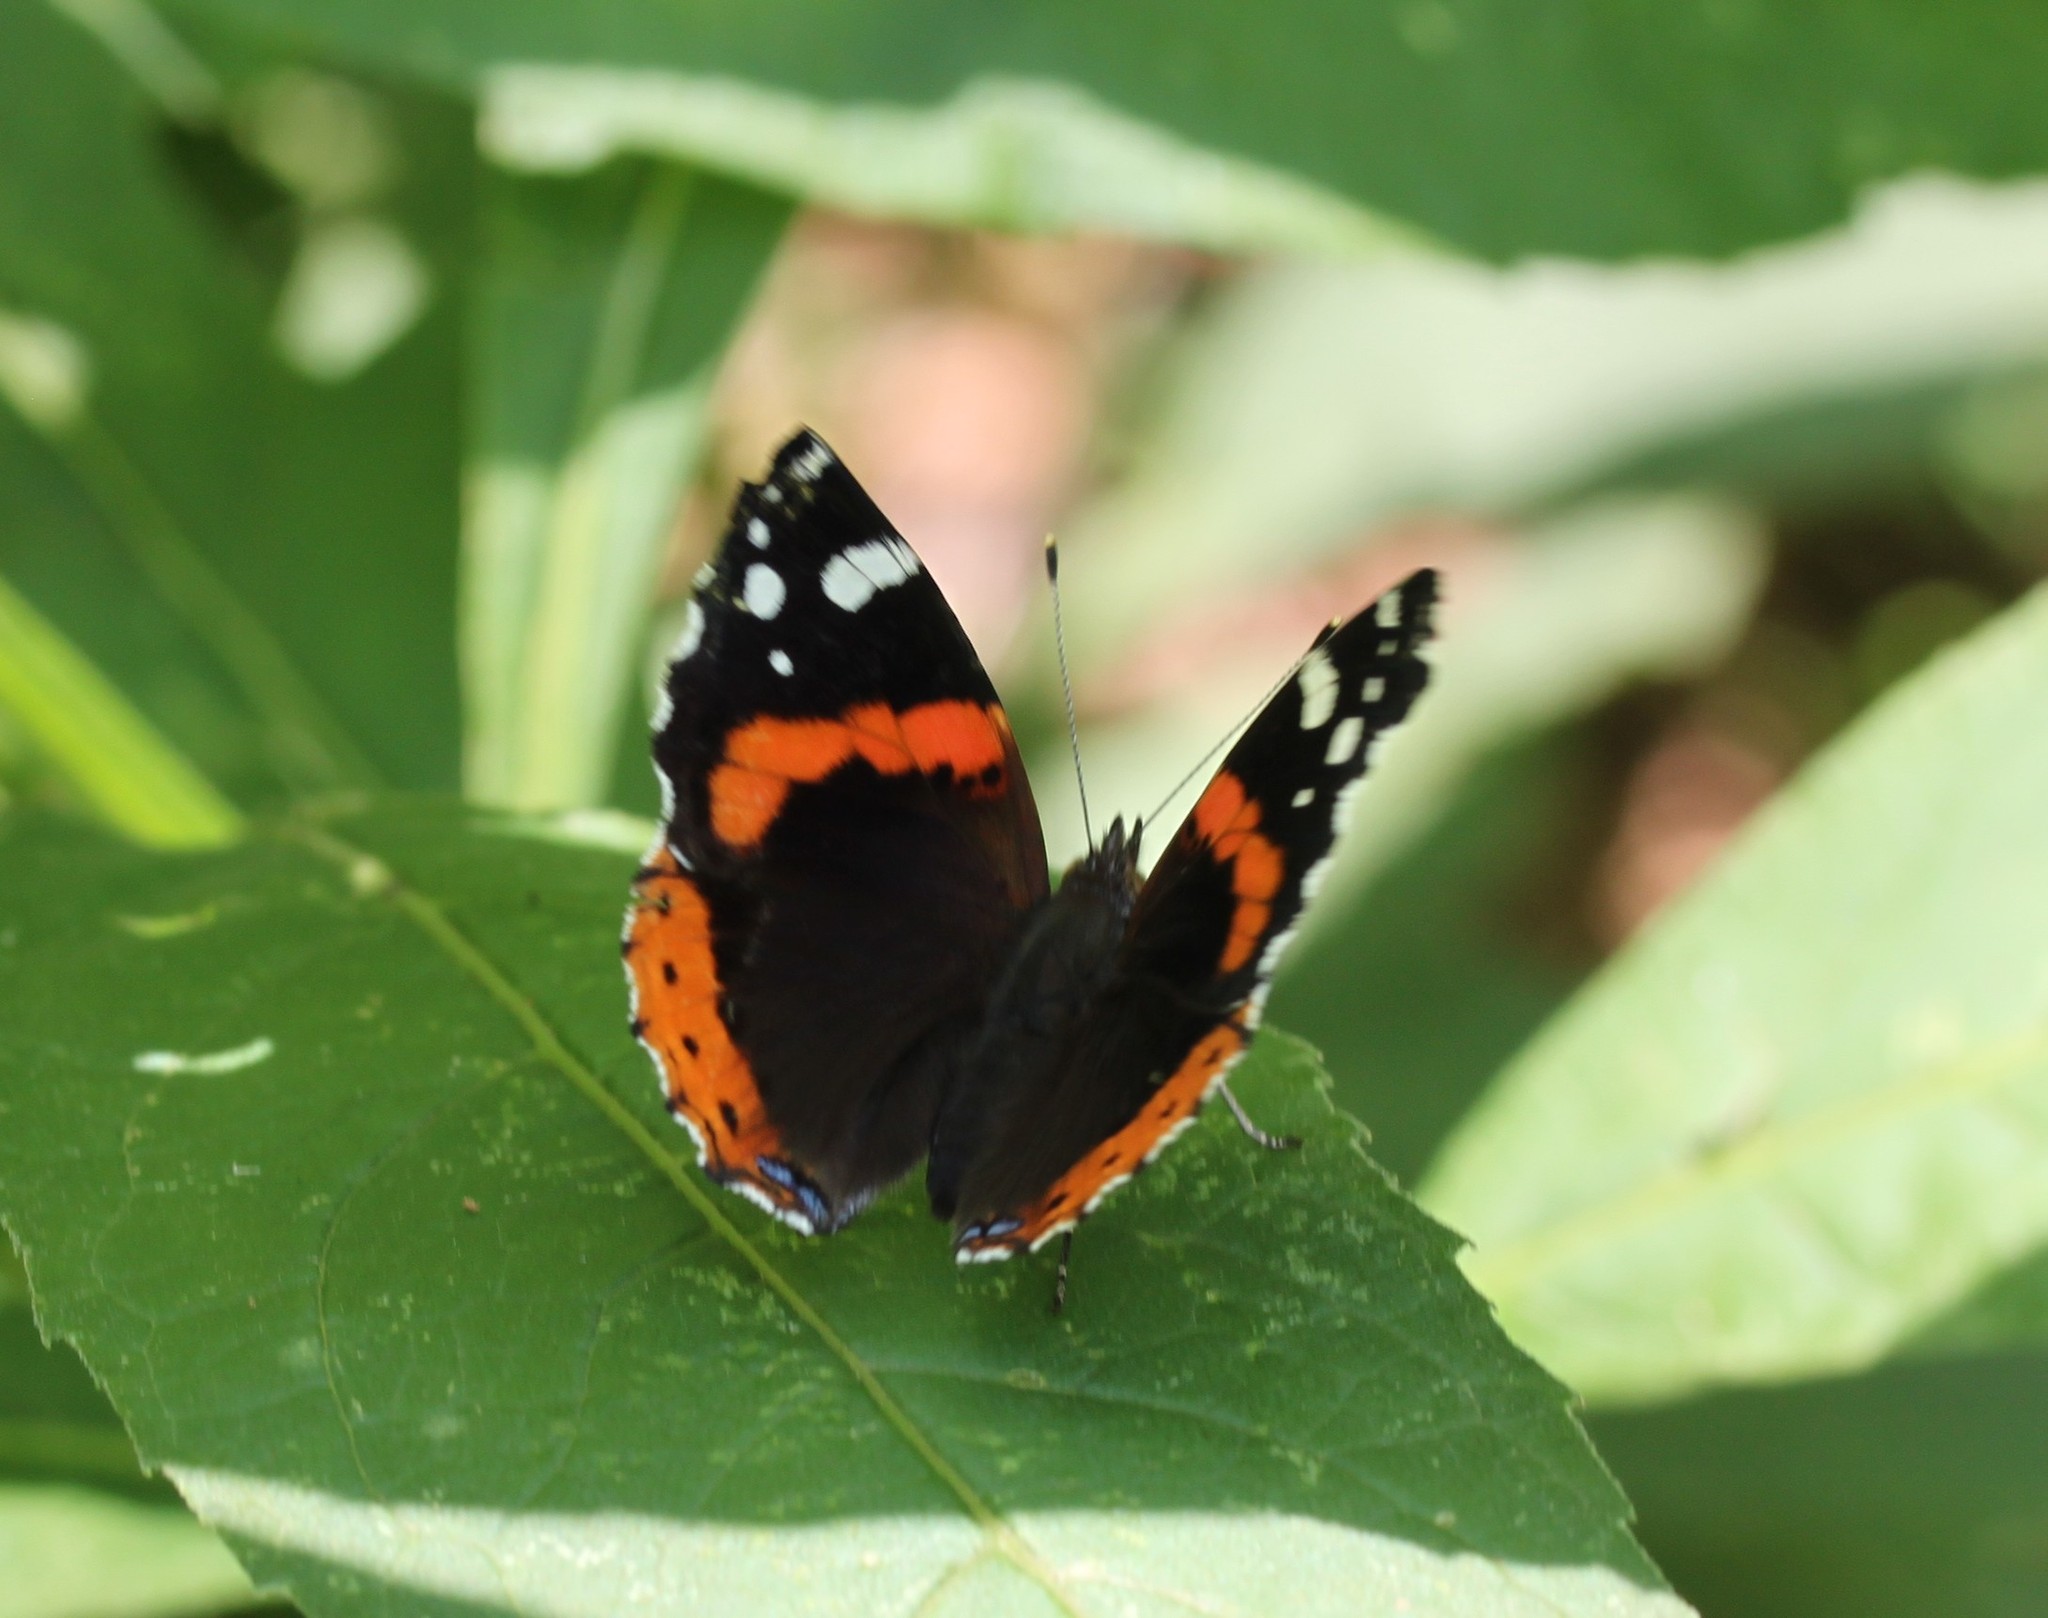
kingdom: Animalia
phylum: Arthropoda
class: Insecta
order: Lepidoptera
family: Nymphalidae
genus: Vanessa
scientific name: Vanessa atalanta
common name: Red admiral
